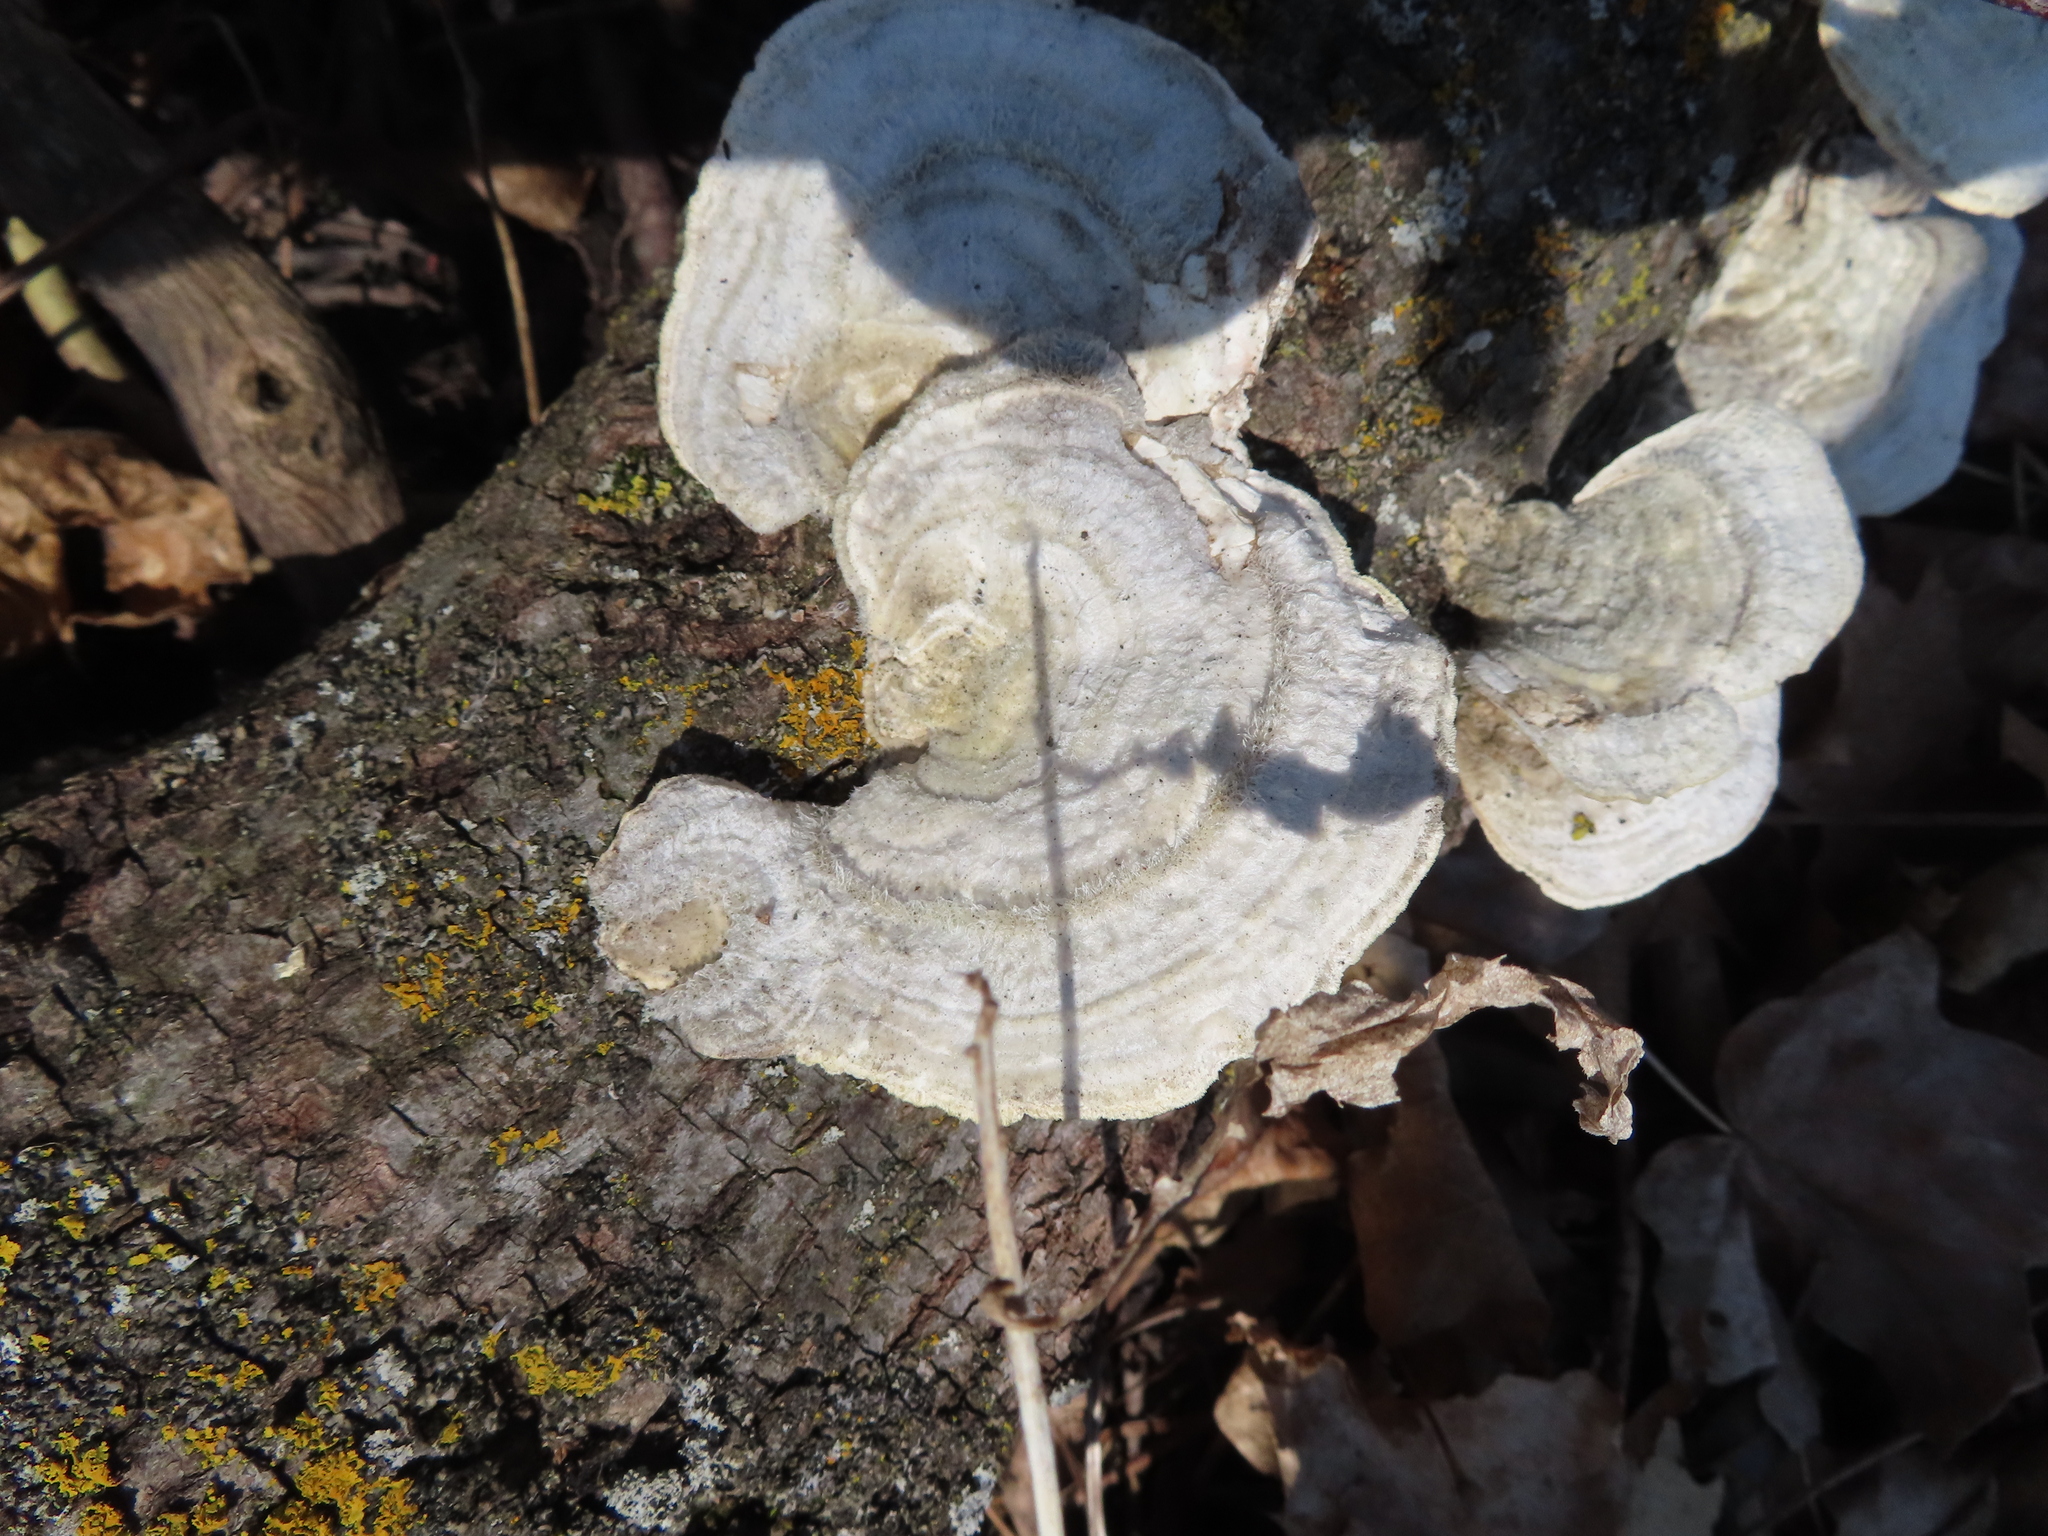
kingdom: Fungi
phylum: Basidiomycota
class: Agaricomycetes
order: Polyporales
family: Polyporaceae
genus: Trametes
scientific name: Trametes hirsuta
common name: Hairy bracket
